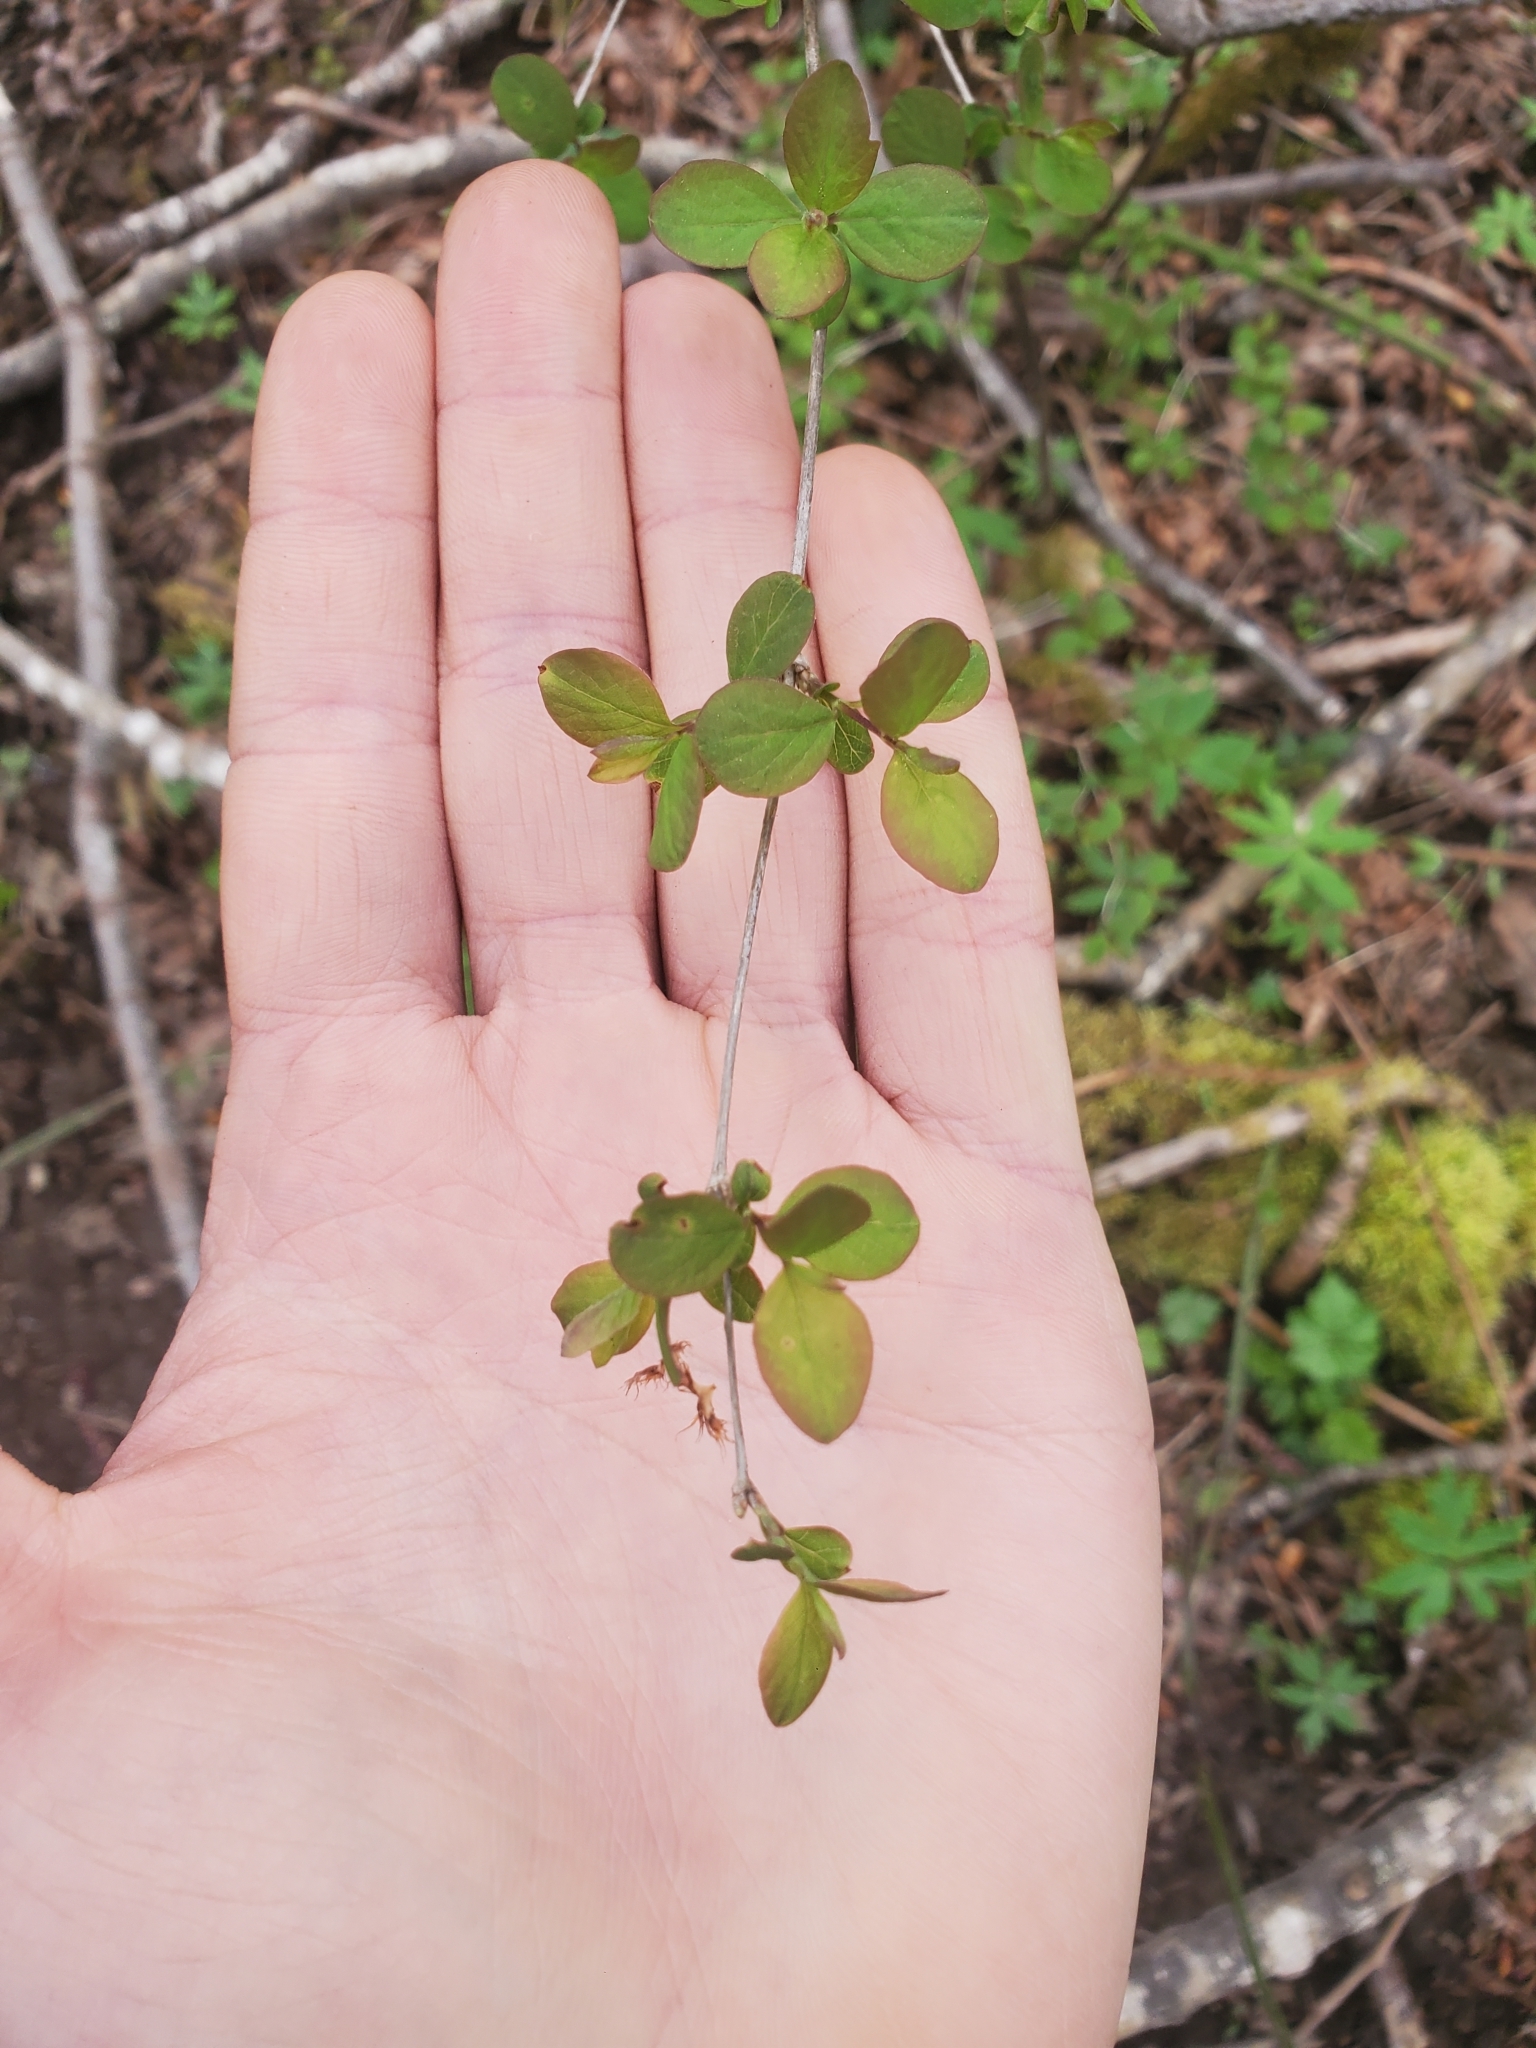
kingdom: Plantae
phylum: Tracheophyta
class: Magnoliopsida
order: Dipsacales
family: Caprifoliaceae
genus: Symphoricarpos
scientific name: Symphoricarpos albus
